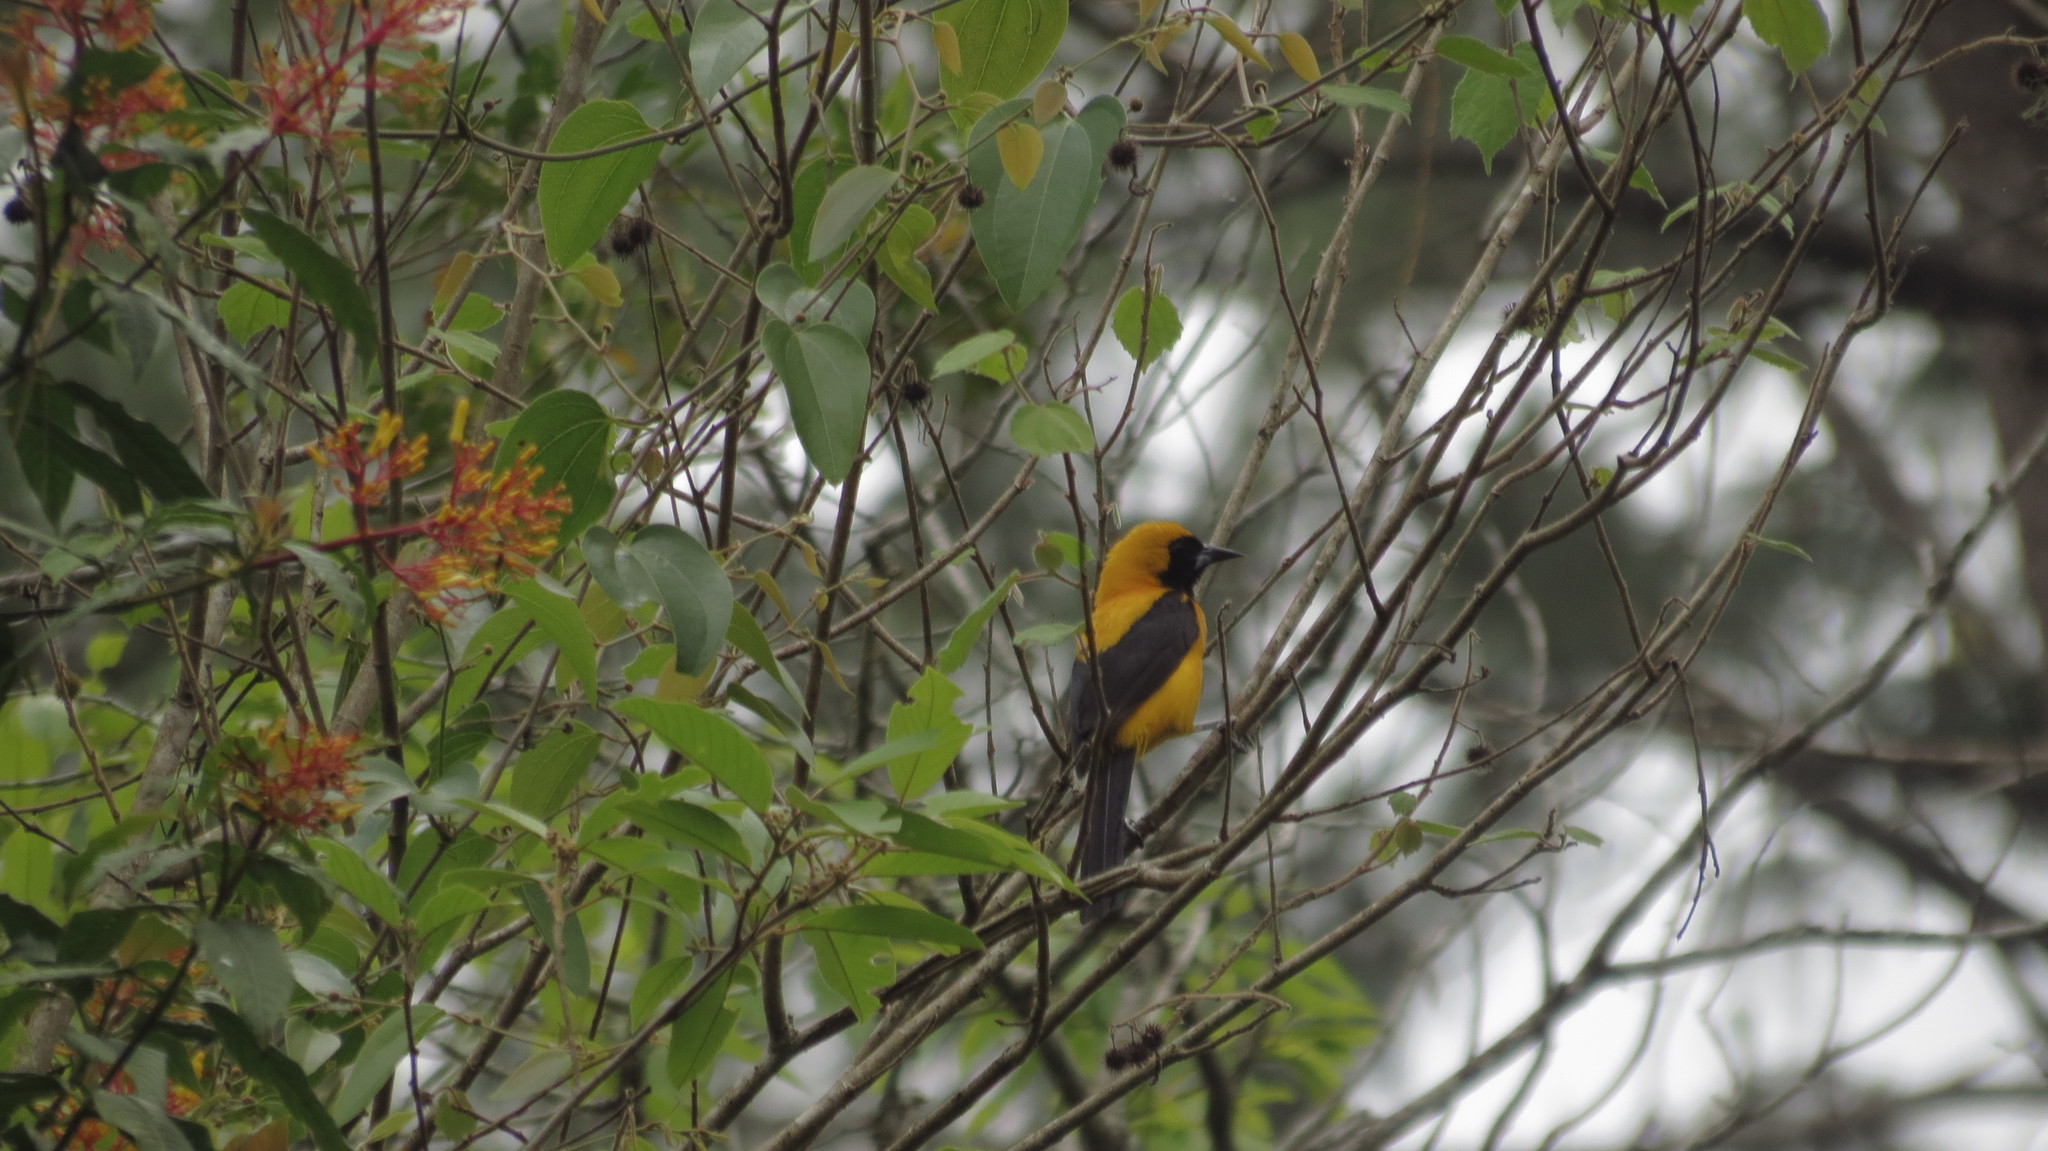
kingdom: Animalia
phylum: Chordata
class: Aves
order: Passeriformes
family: Icteridae
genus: Icterus
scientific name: Icterus chrysater
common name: Yellow-backed oriole
